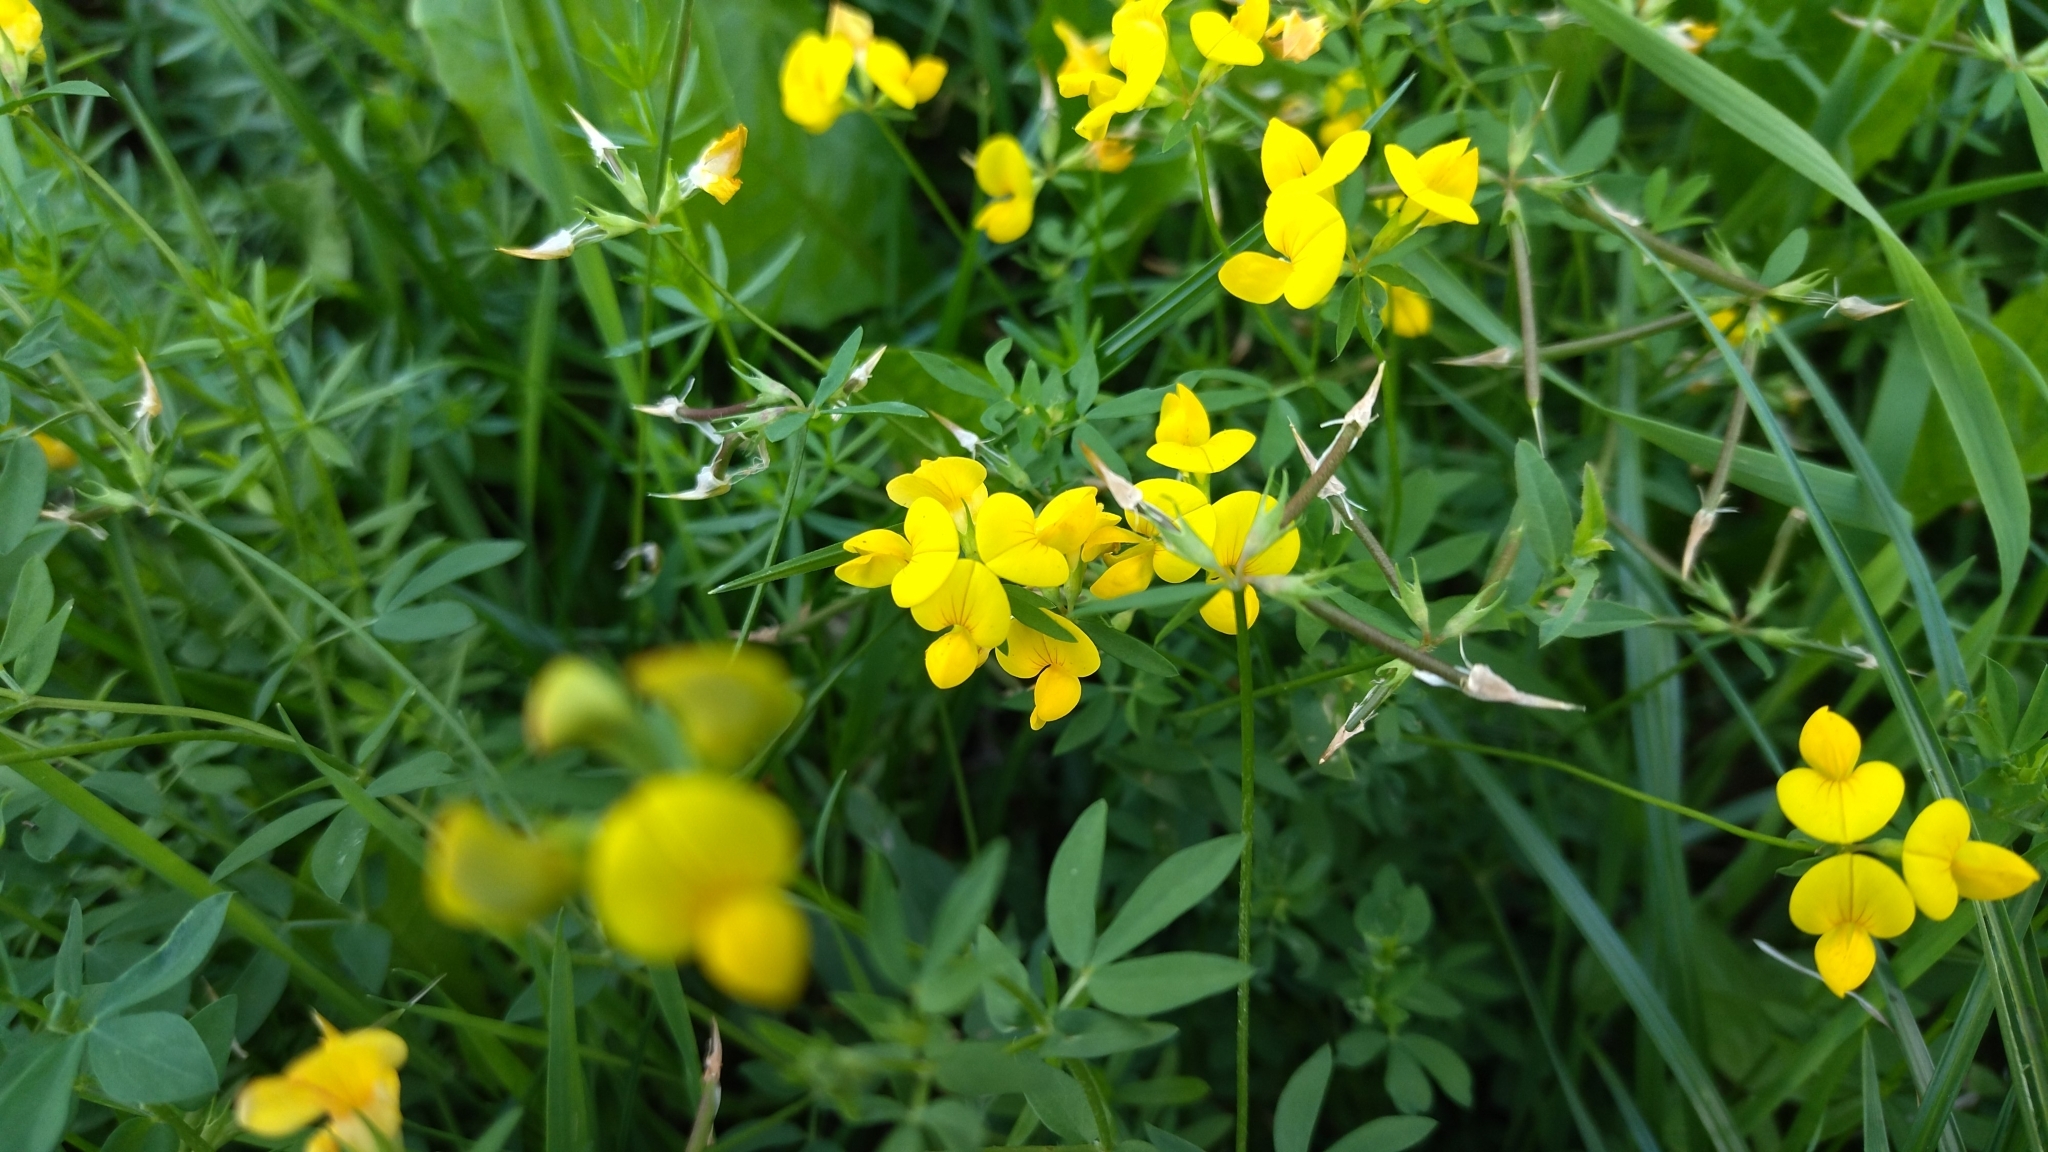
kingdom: Plantae
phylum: Tracheophyta
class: Magnoliopsida
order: Fabales
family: Fabaceae
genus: Lotus
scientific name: Lotus corniculatus
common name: Common bird's-foot-trefoil
